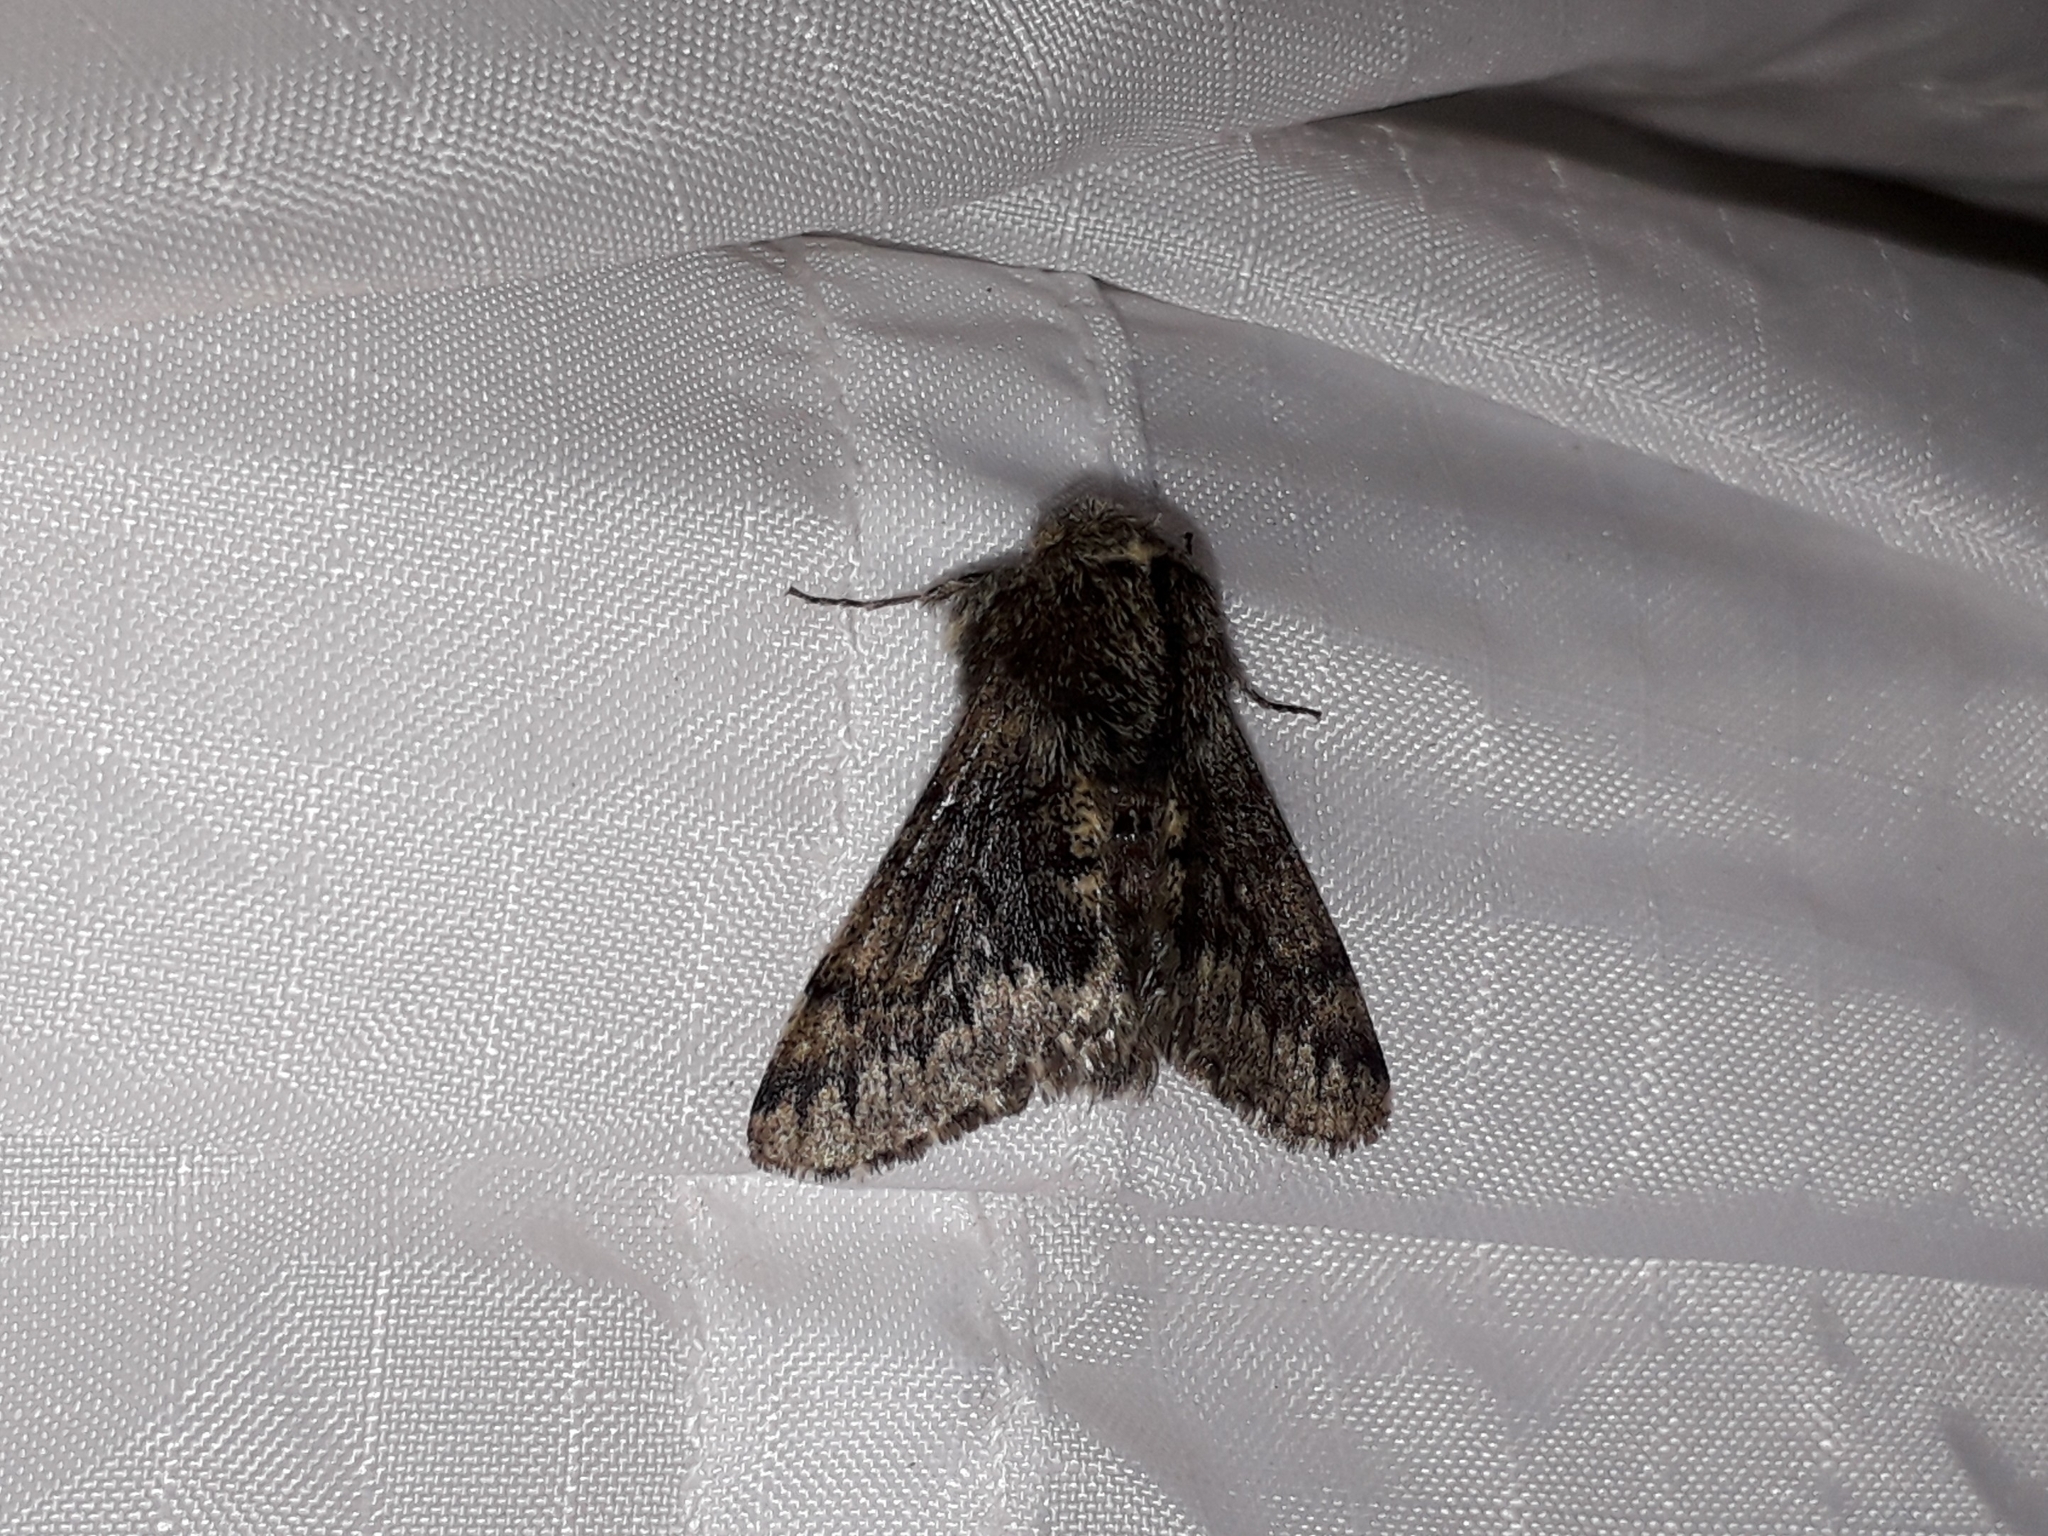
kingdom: Animalia
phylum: Arthropoda
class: Insecta
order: Lepidoptera
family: Geometridae
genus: Apocheima
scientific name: Apocheima hispidaria
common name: Small brindled beauty
